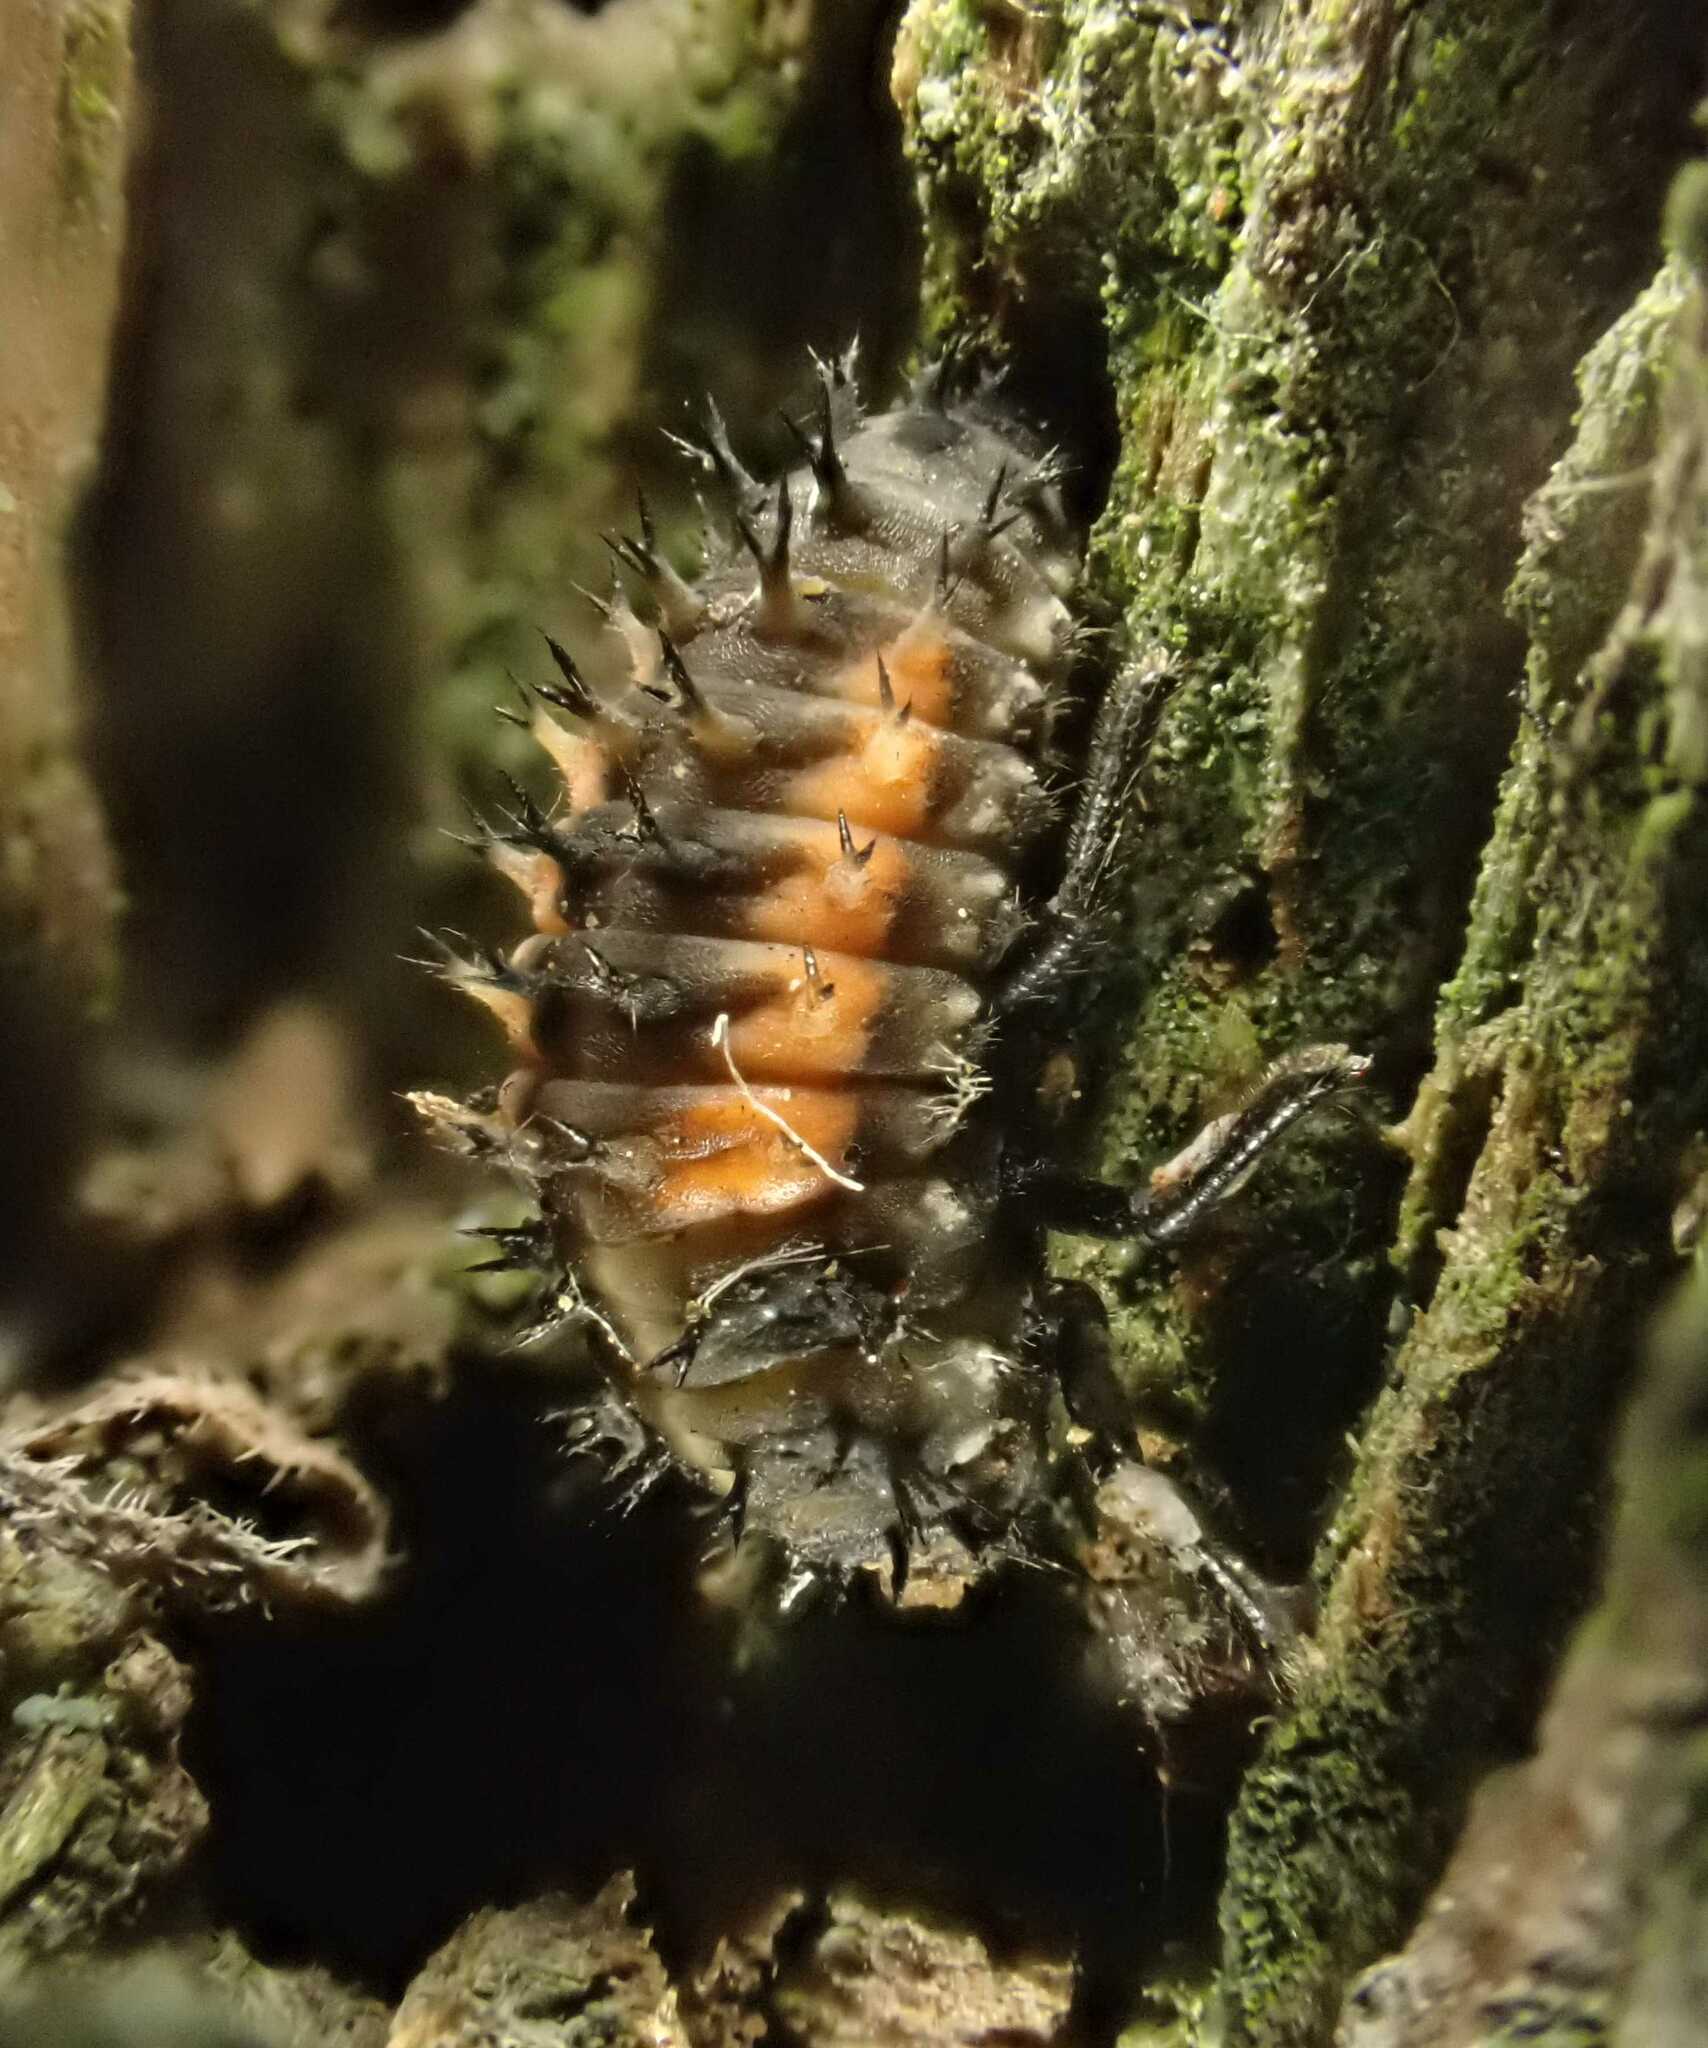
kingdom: Animalia
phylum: Arthropoda
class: Insecta
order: Coleoptera
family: Coccinellidae
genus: Harmonia
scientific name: Harmonia axyridis
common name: Harlequin ladybird
